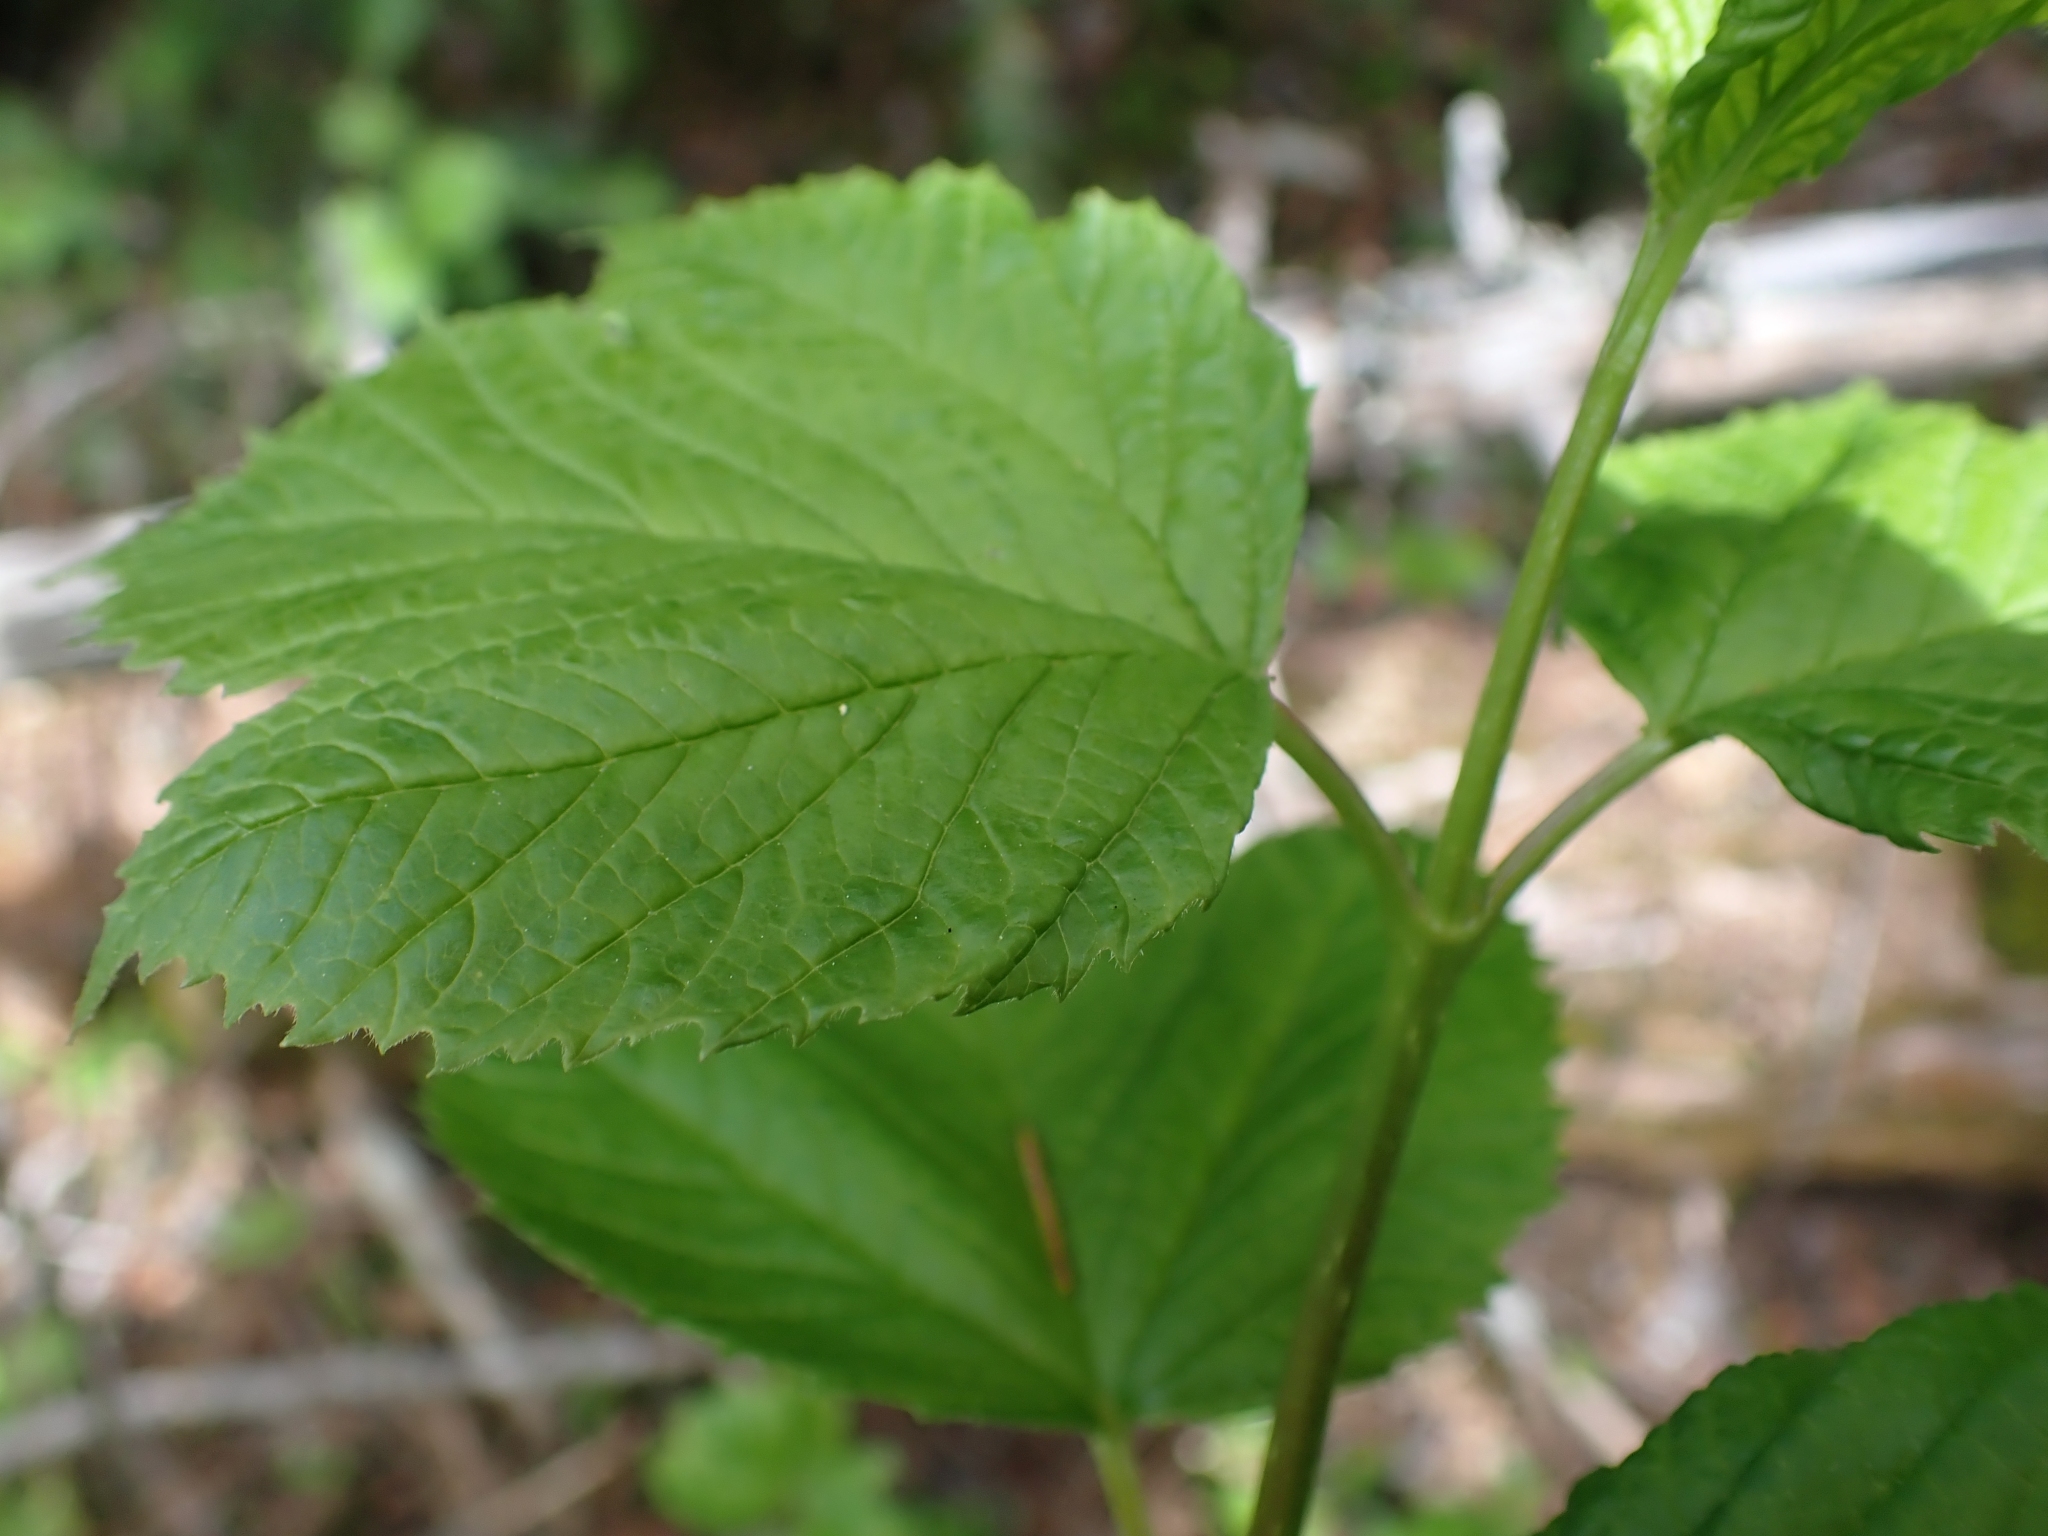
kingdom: Plantae
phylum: Tracheophyta
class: Magnoliopsida
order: Dipsacales
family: Viburnaceae
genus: Viburnum
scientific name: Viburnum edule
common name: Mooseberry
